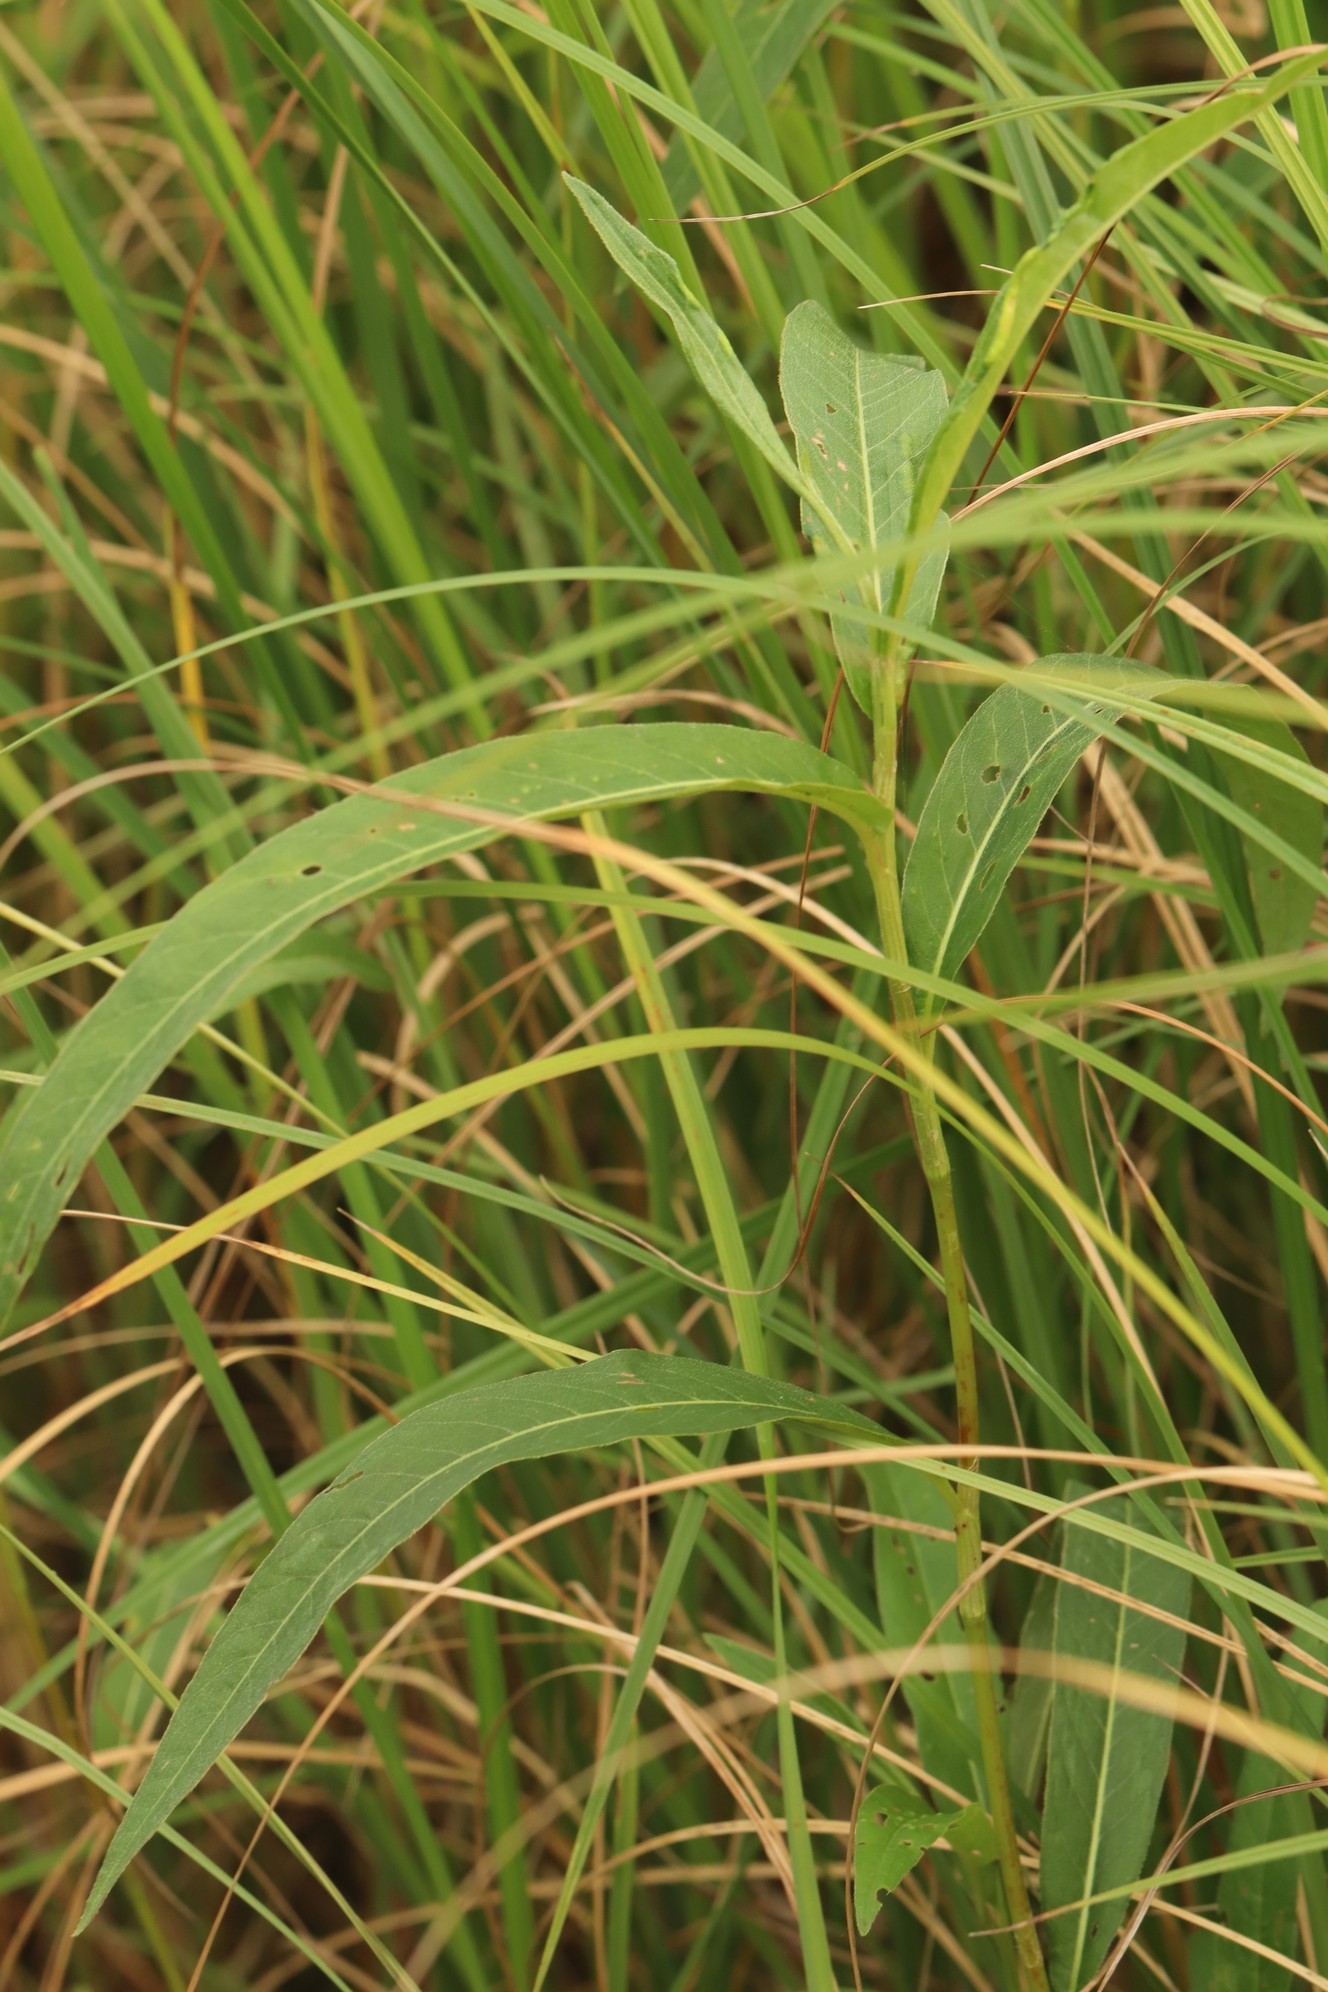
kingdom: Plantae
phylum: Tracheophyta
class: Magnoliopsida
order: Caryophyllales
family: Polygonaceae
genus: Persicaria
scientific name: Persicaria amphibia
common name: Amphibious bistort
